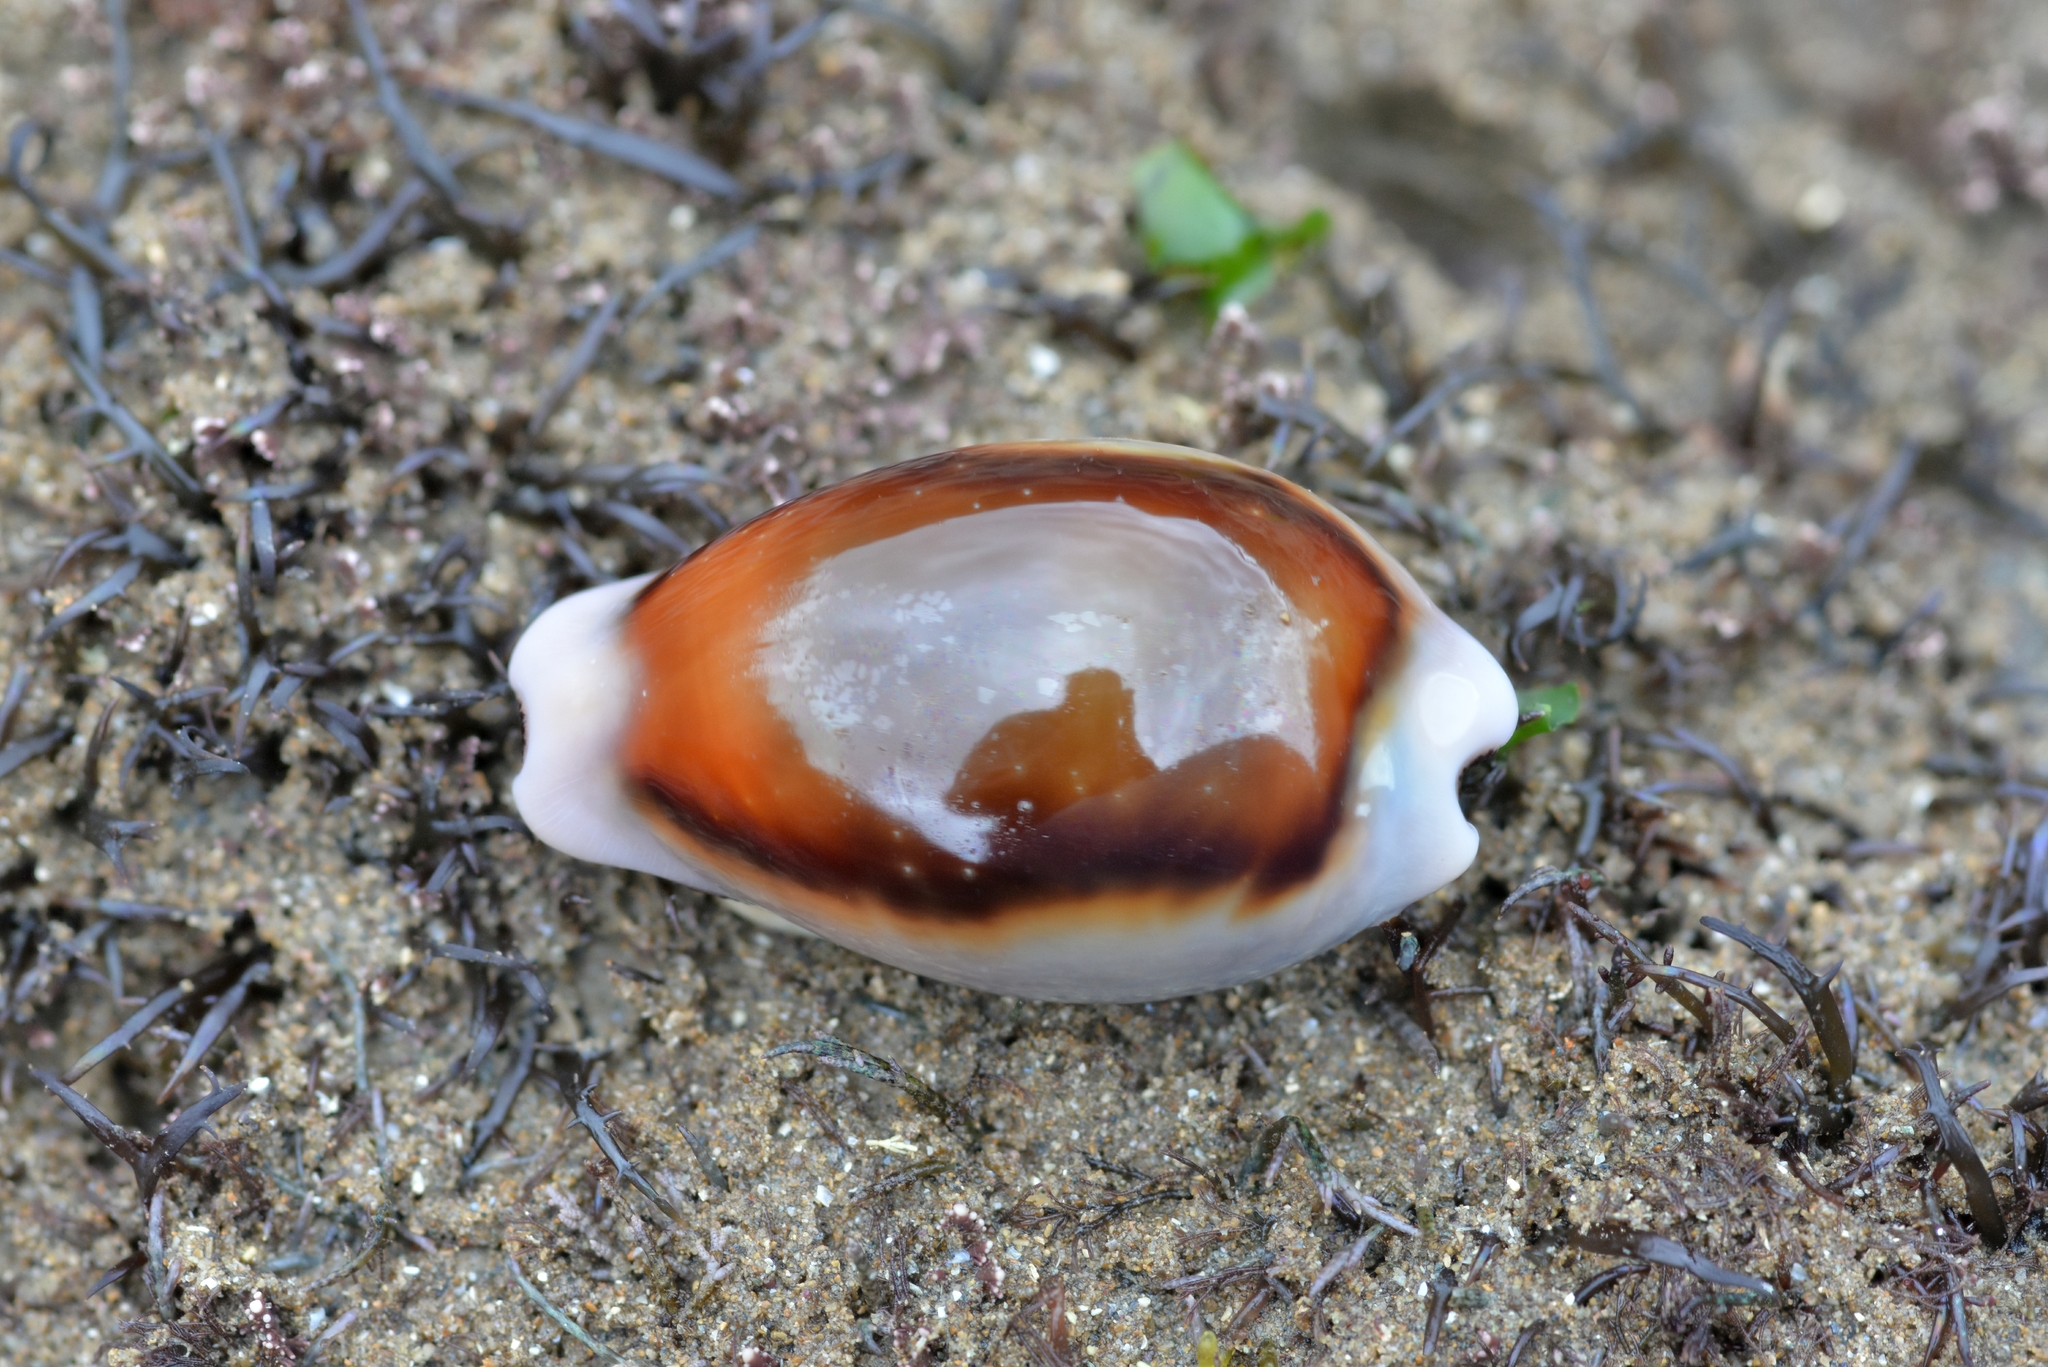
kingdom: Animalia
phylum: Mollusca
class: Gastropoda
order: Littorinimorpha
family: Cypraeidae
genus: Neobernaya
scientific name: Neobernaya spadicea
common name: Chestnut cowrie
